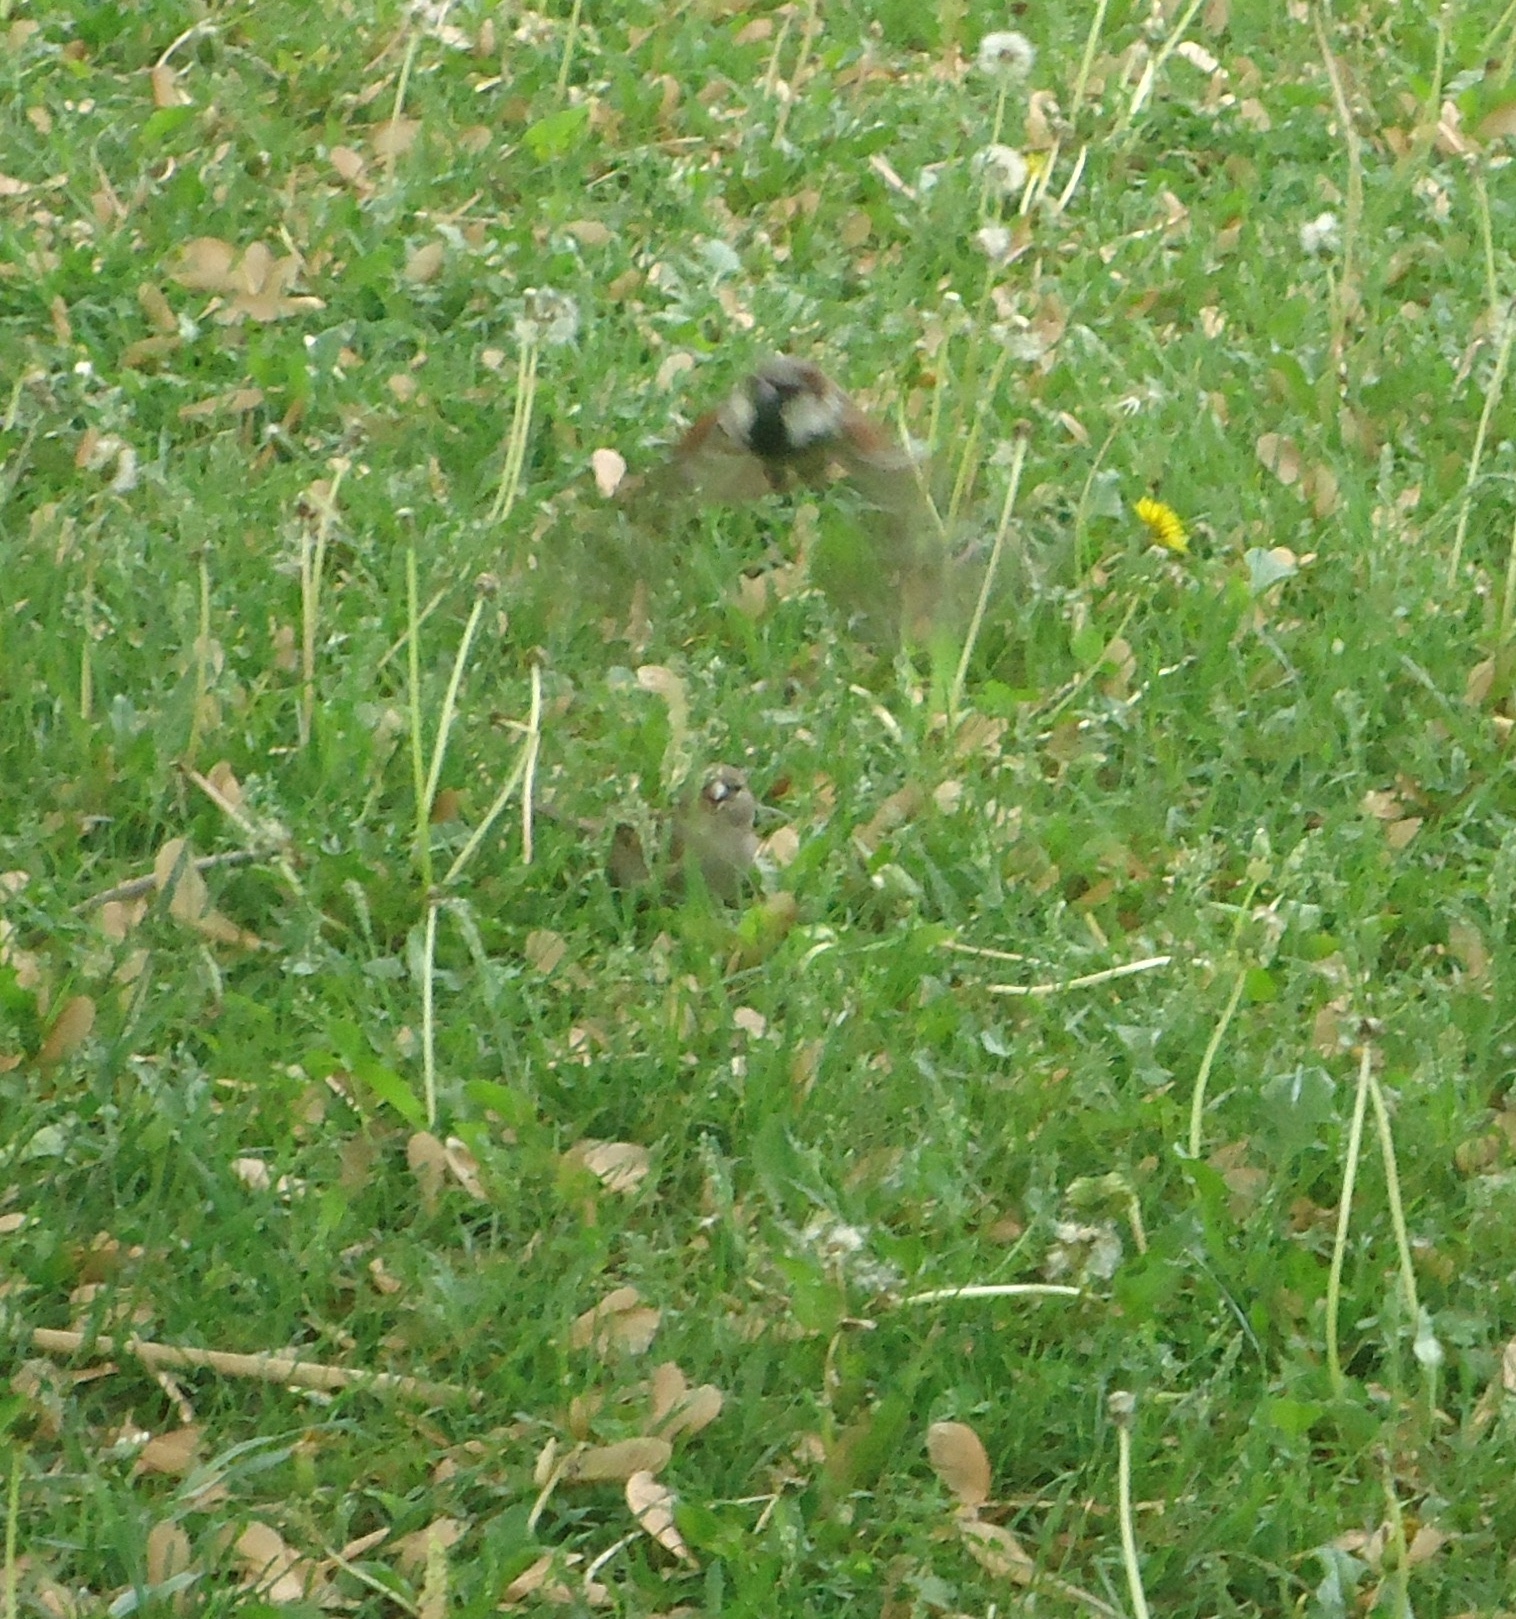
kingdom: Animalia
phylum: Chordata
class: Aves
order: Passeriformes
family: Passeridae
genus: Passer
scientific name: Passer domesticus
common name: House sparrow
